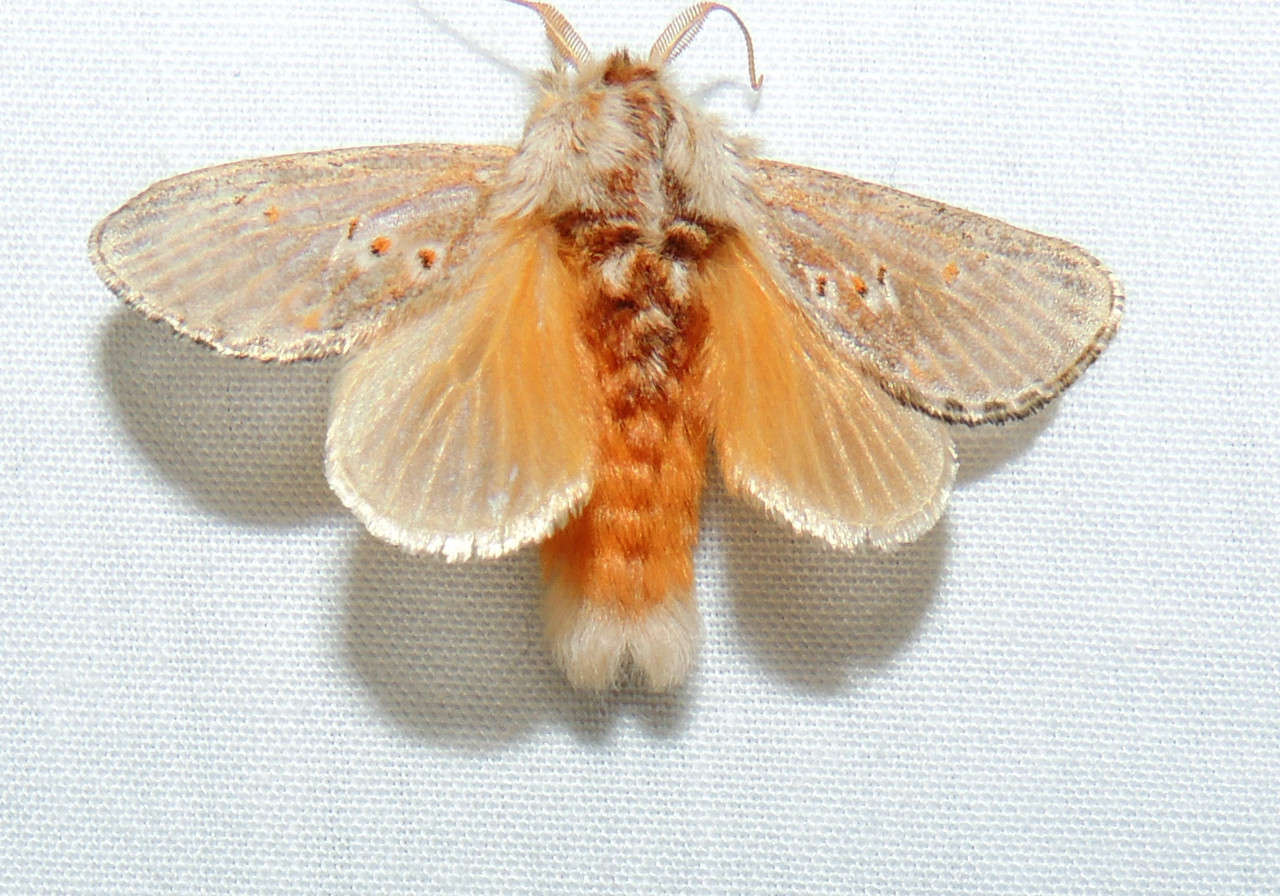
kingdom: Animalia
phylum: Arthropoda
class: Insecta
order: Lepidoptera
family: Limacodidae
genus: Pseudanapaea
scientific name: Pseudanapaea transvestita
